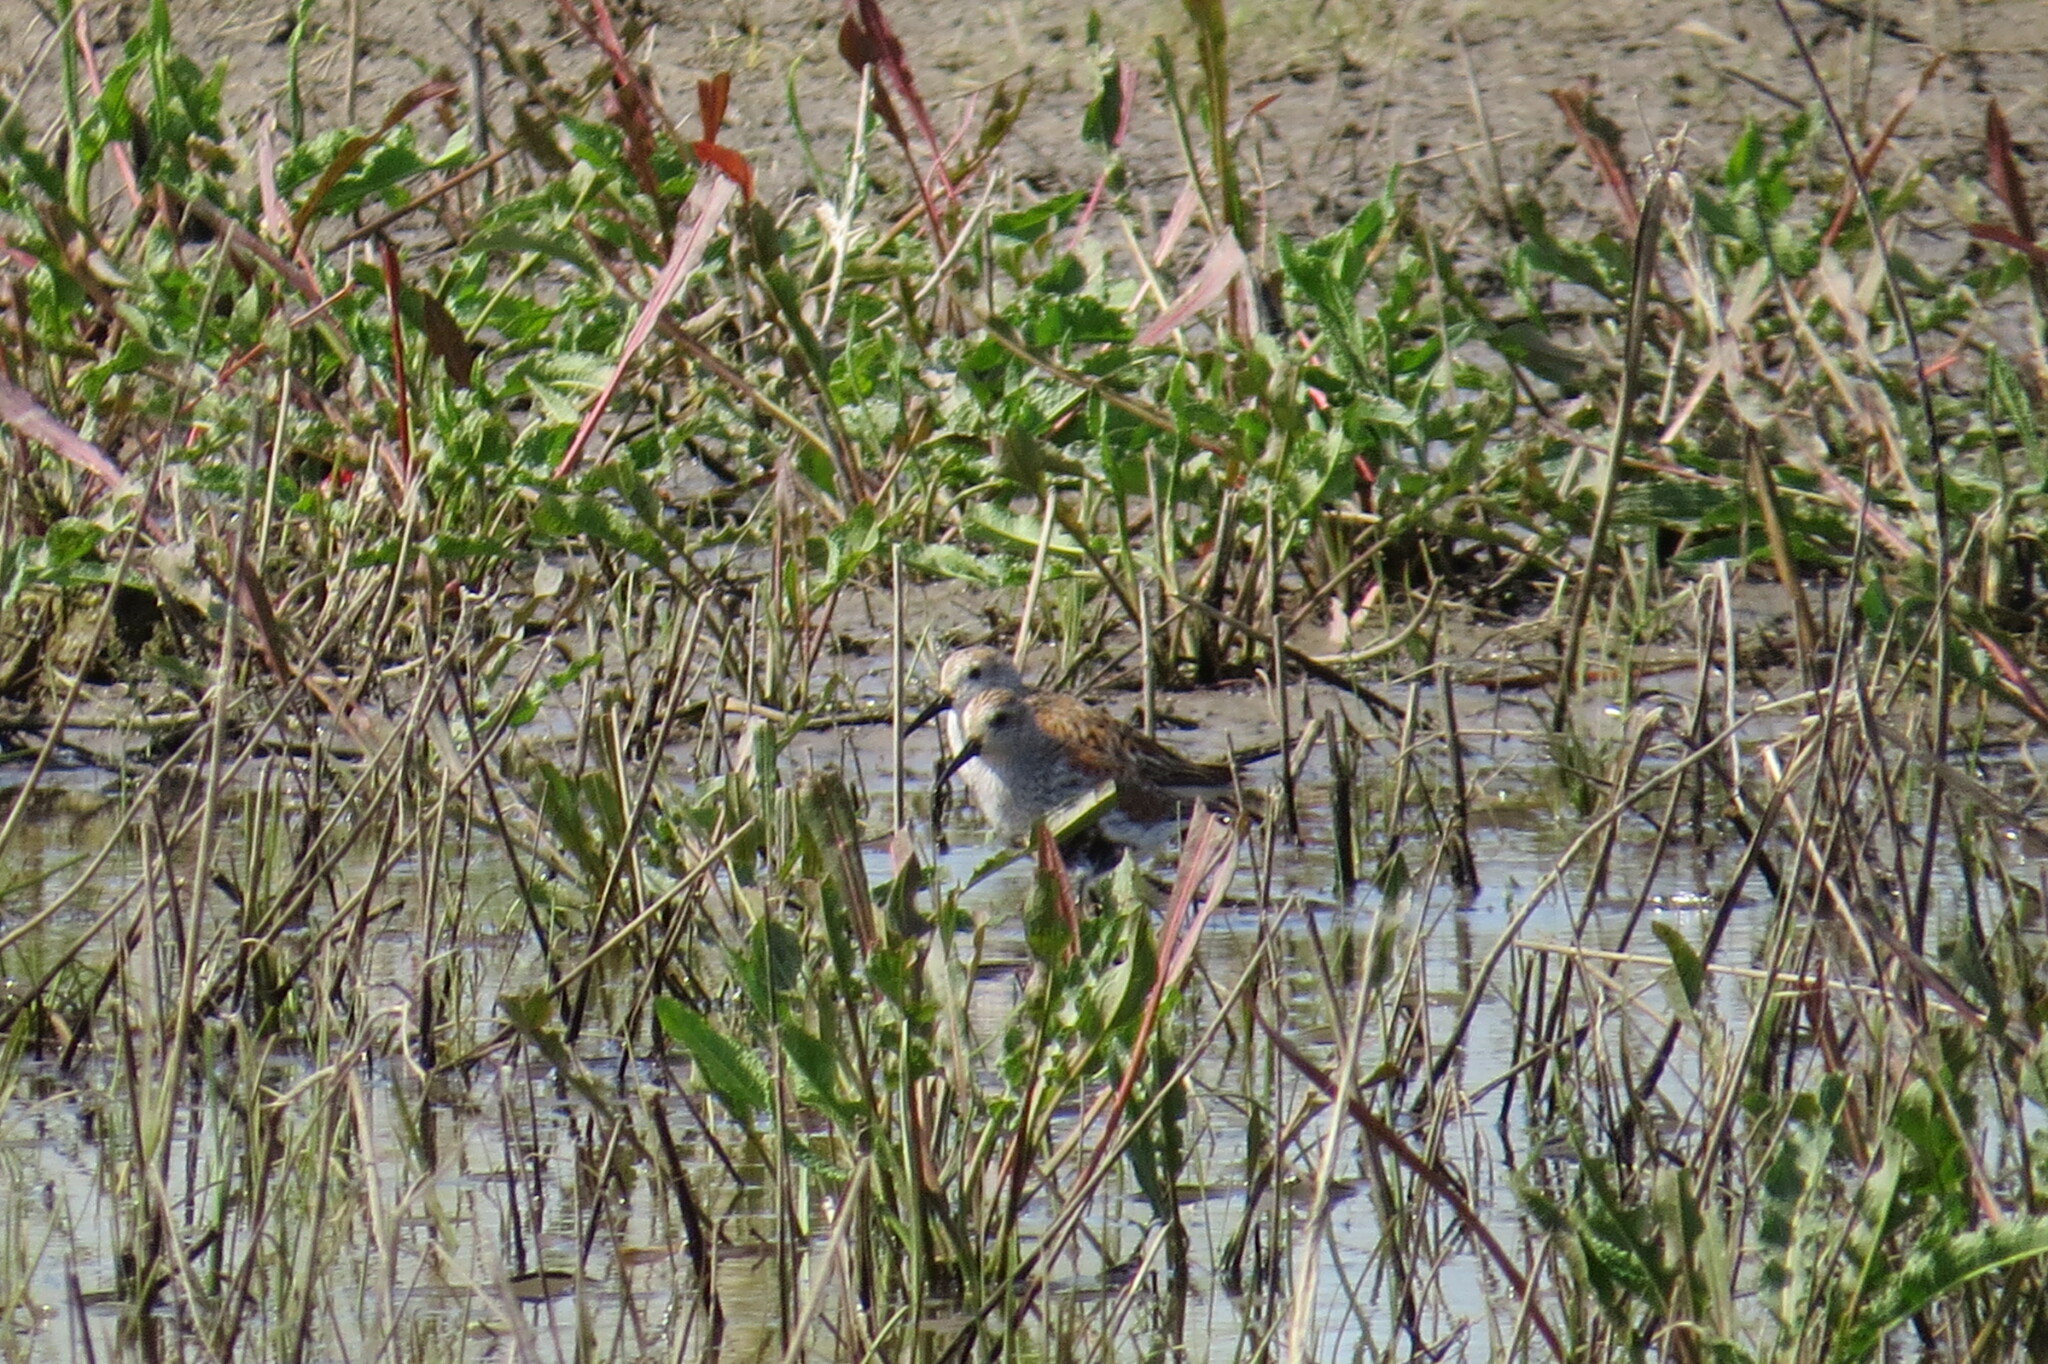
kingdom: Animalia
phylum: Chordata
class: Aves
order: Charadriiformes
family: Scolopacidae
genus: Calidris
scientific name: Calidris fuscicollis
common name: White-rumped sandpiper
